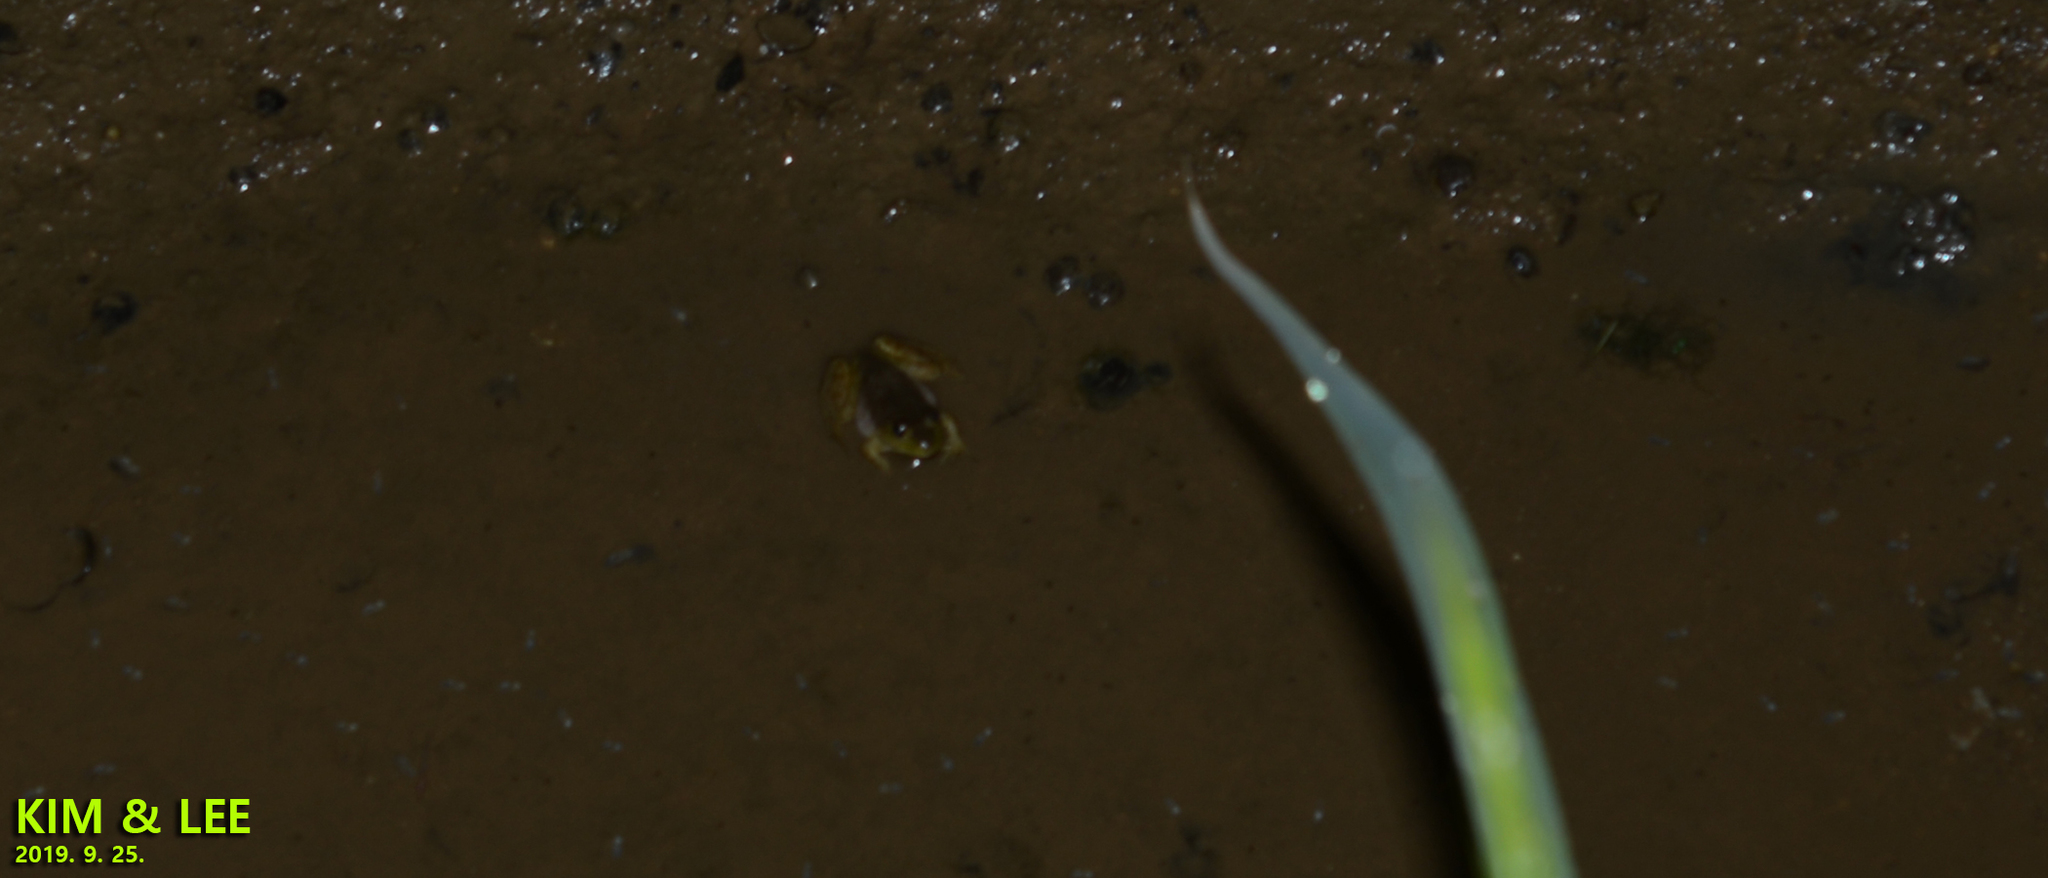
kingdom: Animalia
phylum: Chordata
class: Amphibia
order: Anura
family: Ranidae
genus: Lithobates
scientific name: Lithobates catesbeianus
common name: American bullfrog
